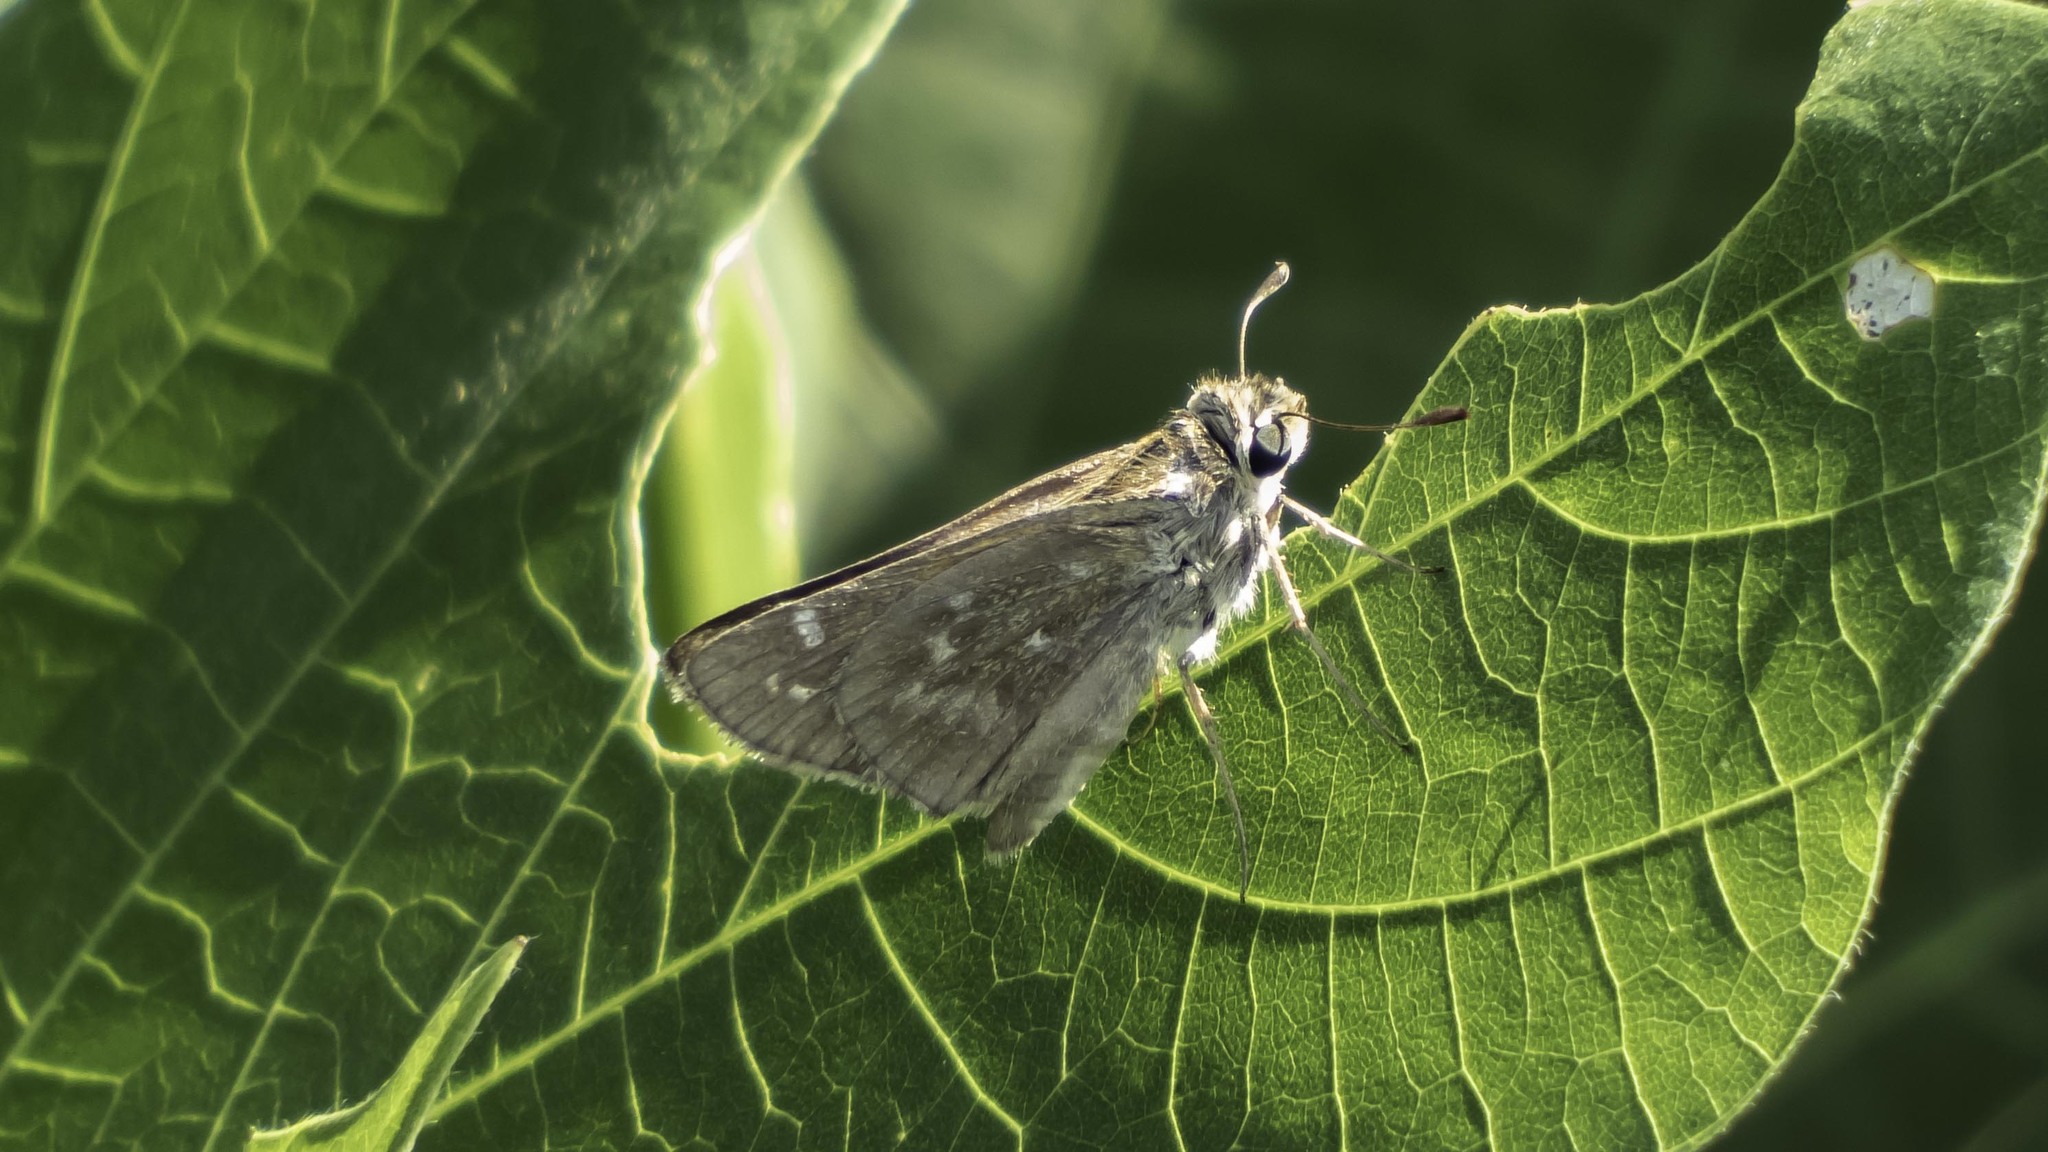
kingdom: Animalia
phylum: Arthropoda
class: Insecta
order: Lepidoptera
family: Hesperiidae
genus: Atalopedes
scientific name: Atalopedes
